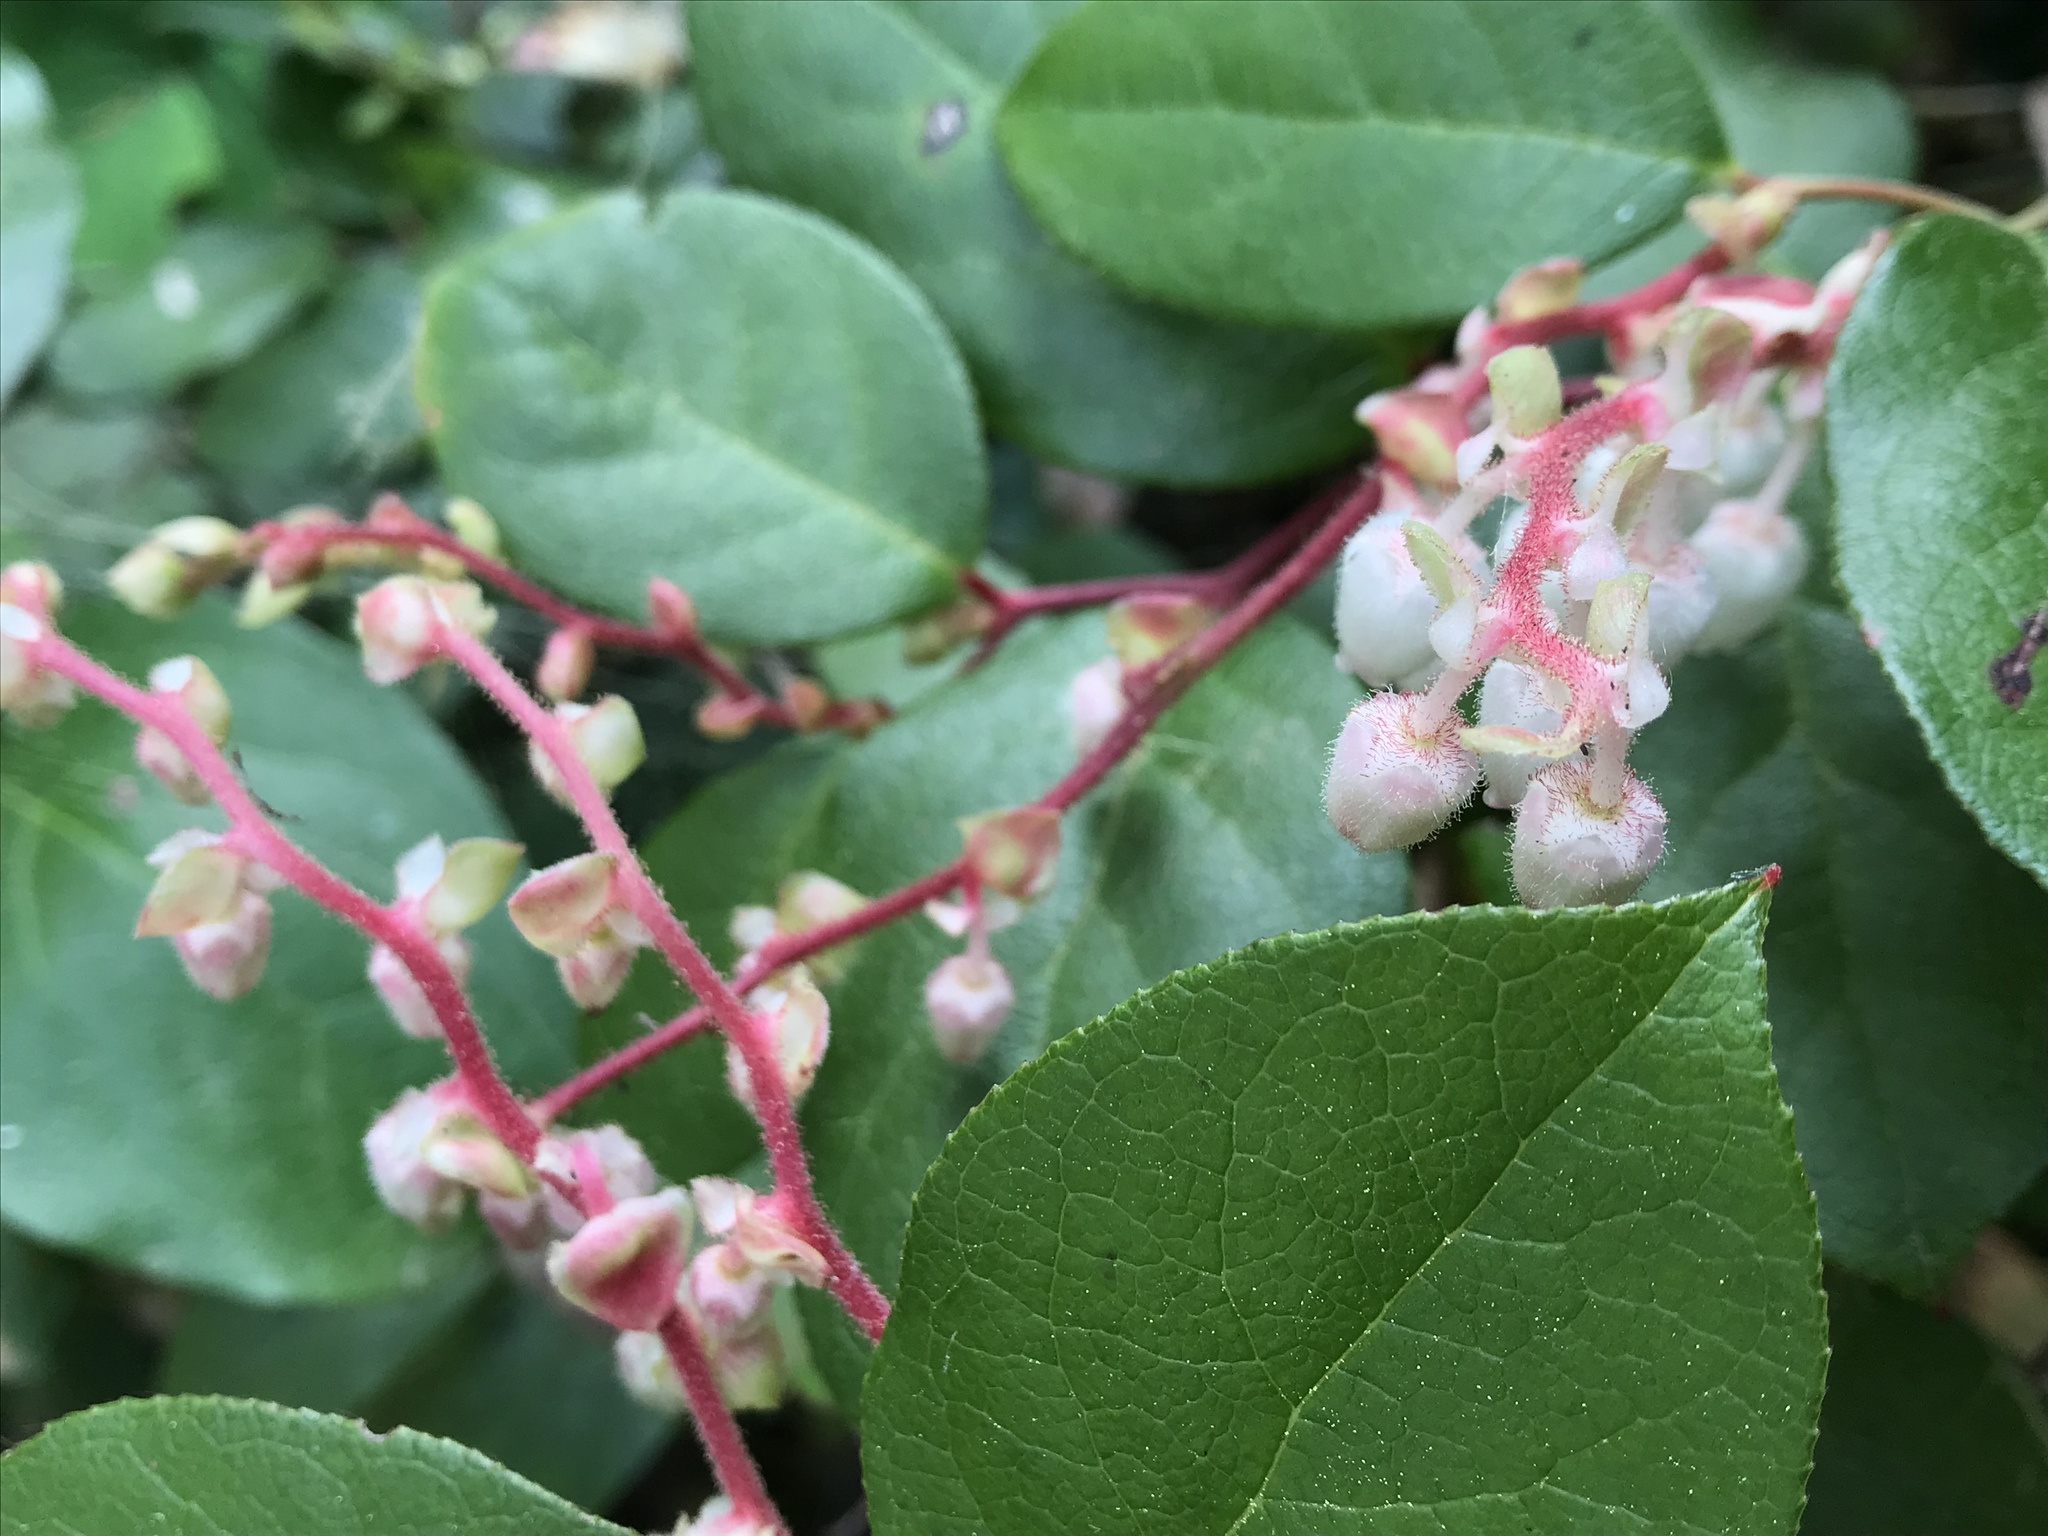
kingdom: Plantae
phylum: Tracheophyta
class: Magnoliopsida
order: Ericales
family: Ericaceae
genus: Gaultheria
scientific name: Gaultheria shallon
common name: Shallon
